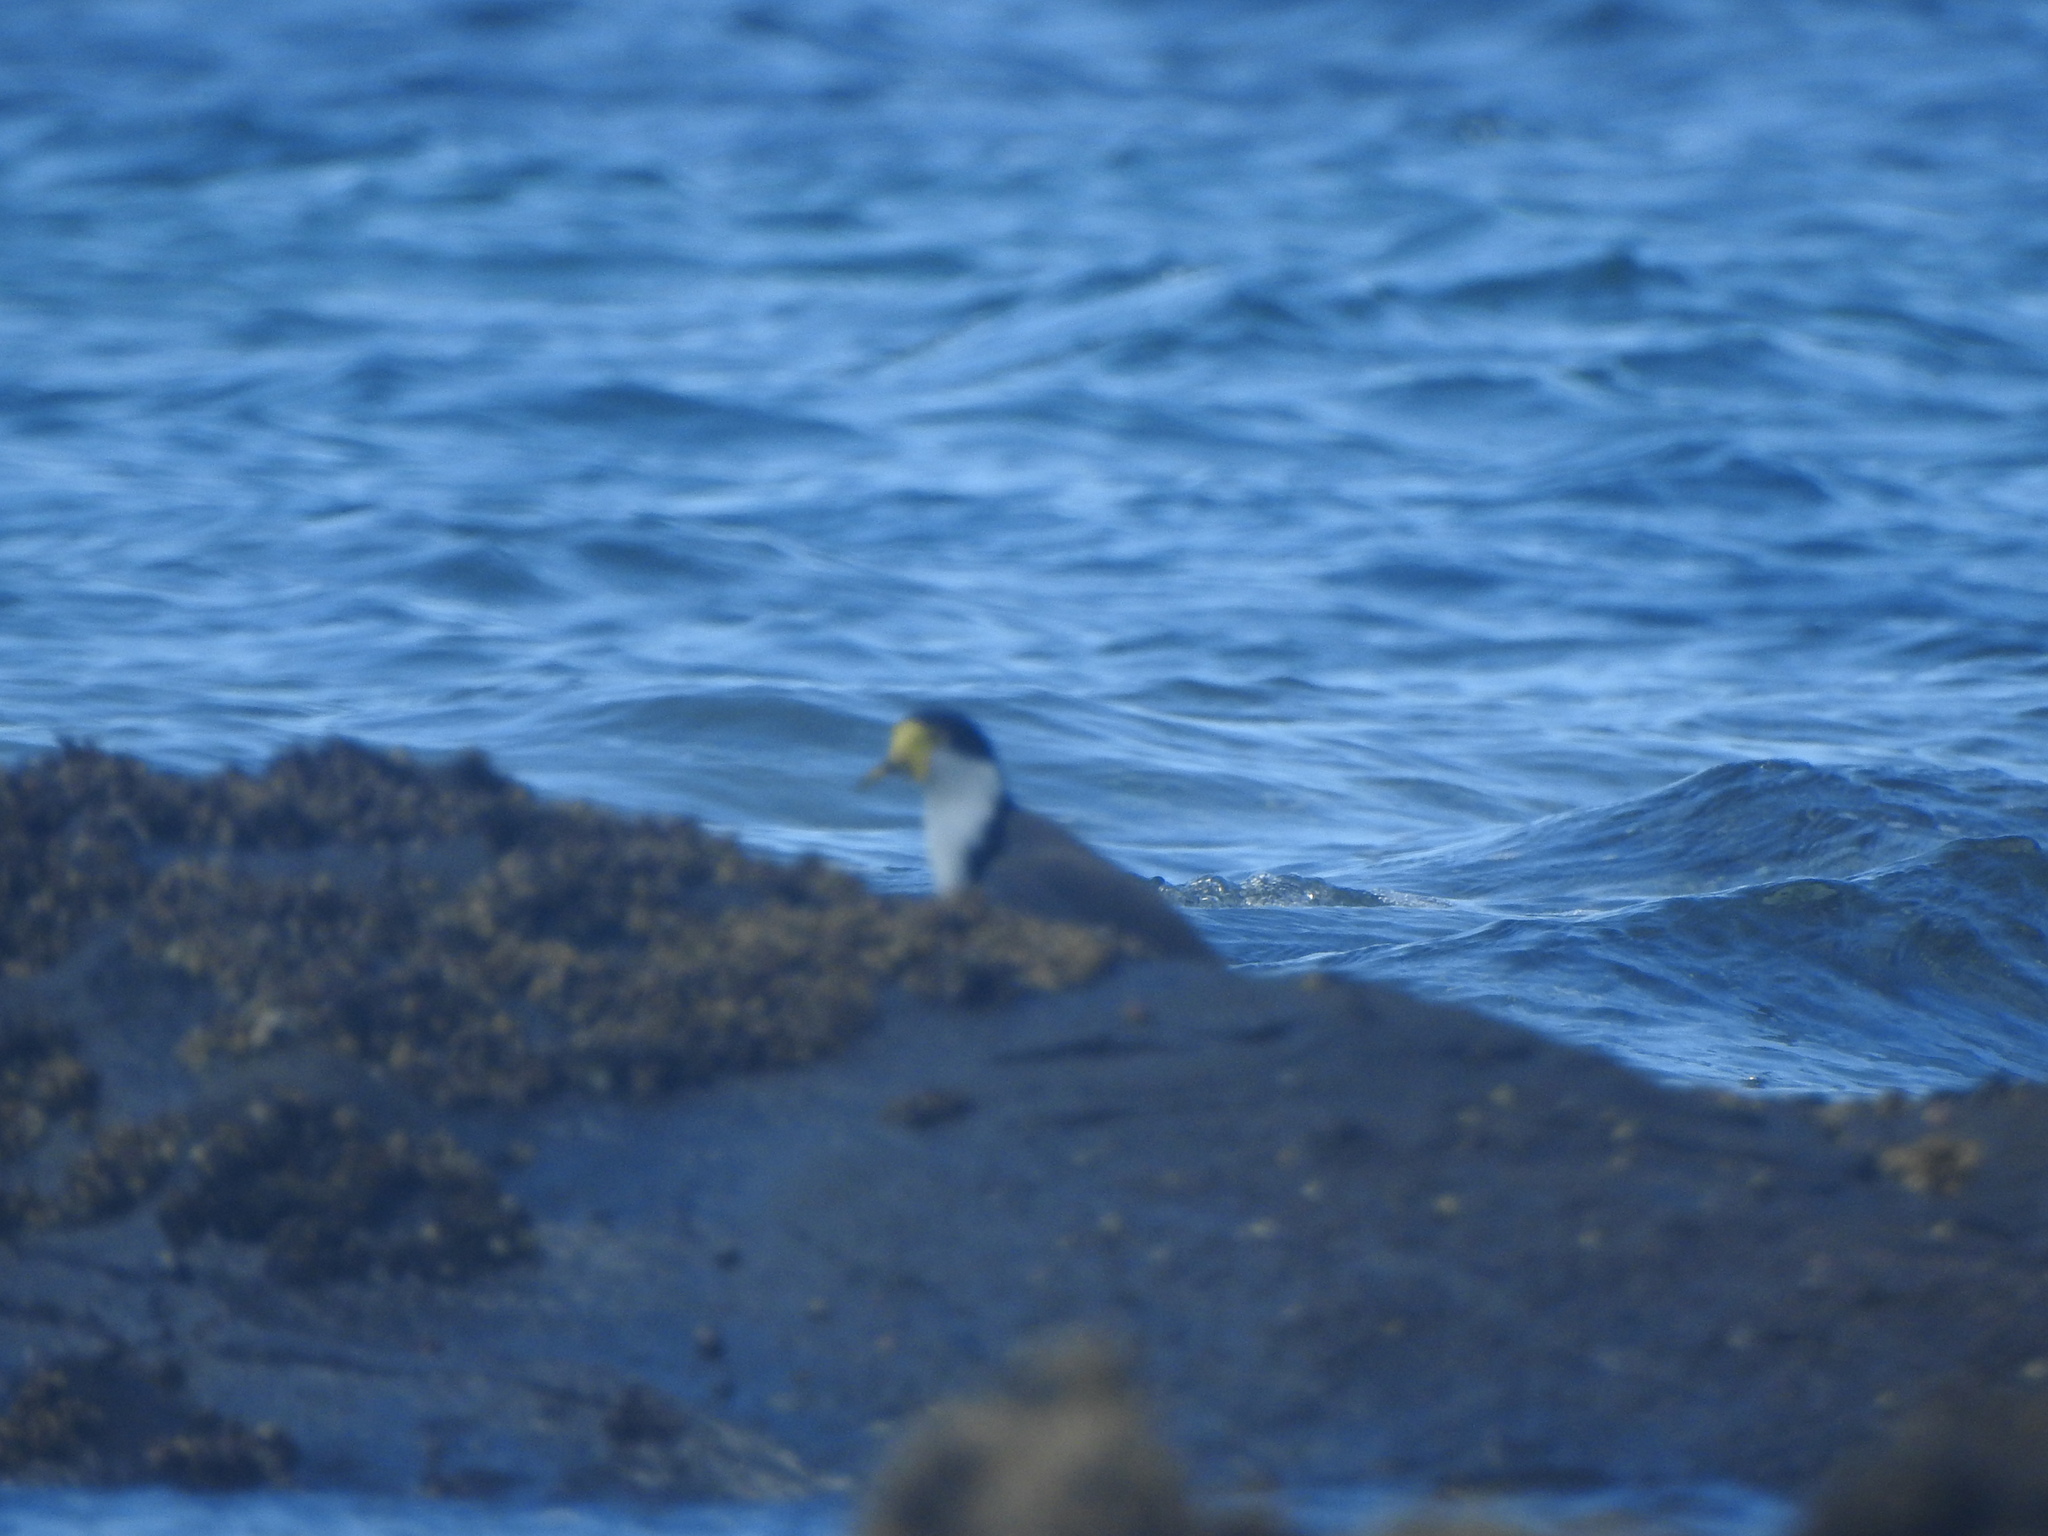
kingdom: Animalia
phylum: Chordata
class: Aves
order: Charadriiformes
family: Charadriidae
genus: Vanellus
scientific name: Vanellus miles
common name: Masked lapwing
